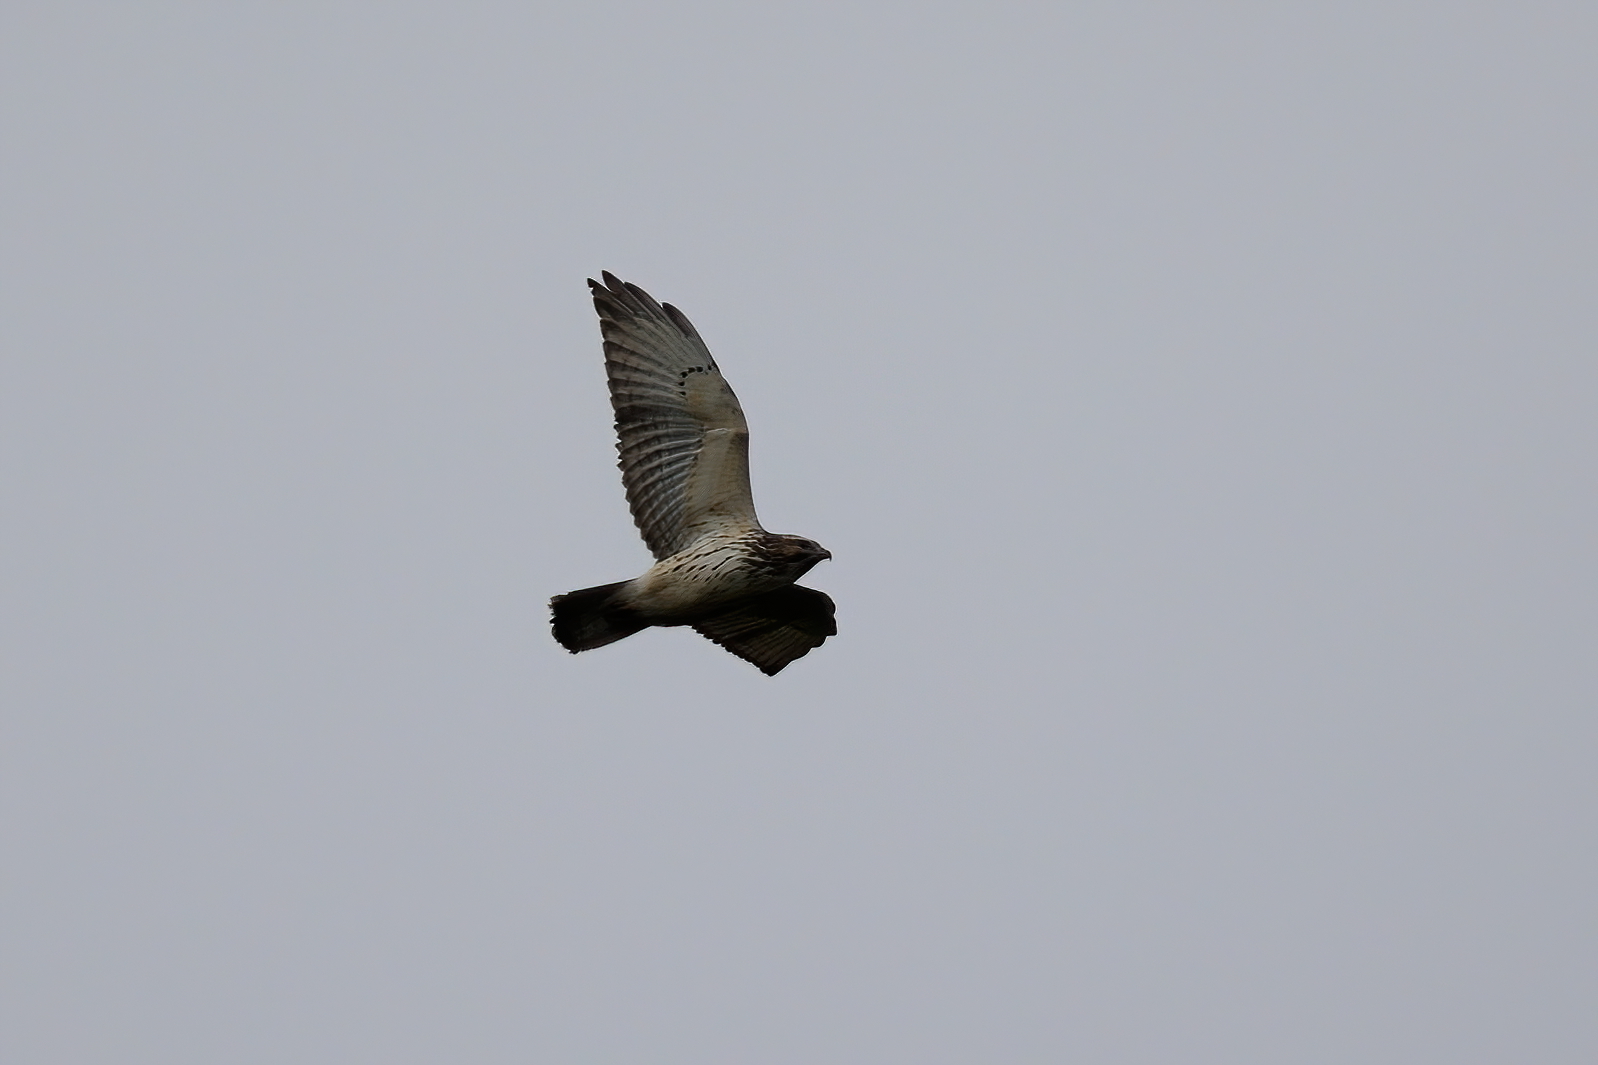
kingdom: Animalia
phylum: Chordata
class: Aves
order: Accipitriformes
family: Accipitridae
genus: Buteo
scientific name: Buteo platypterus
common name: Broad-winged hawk
